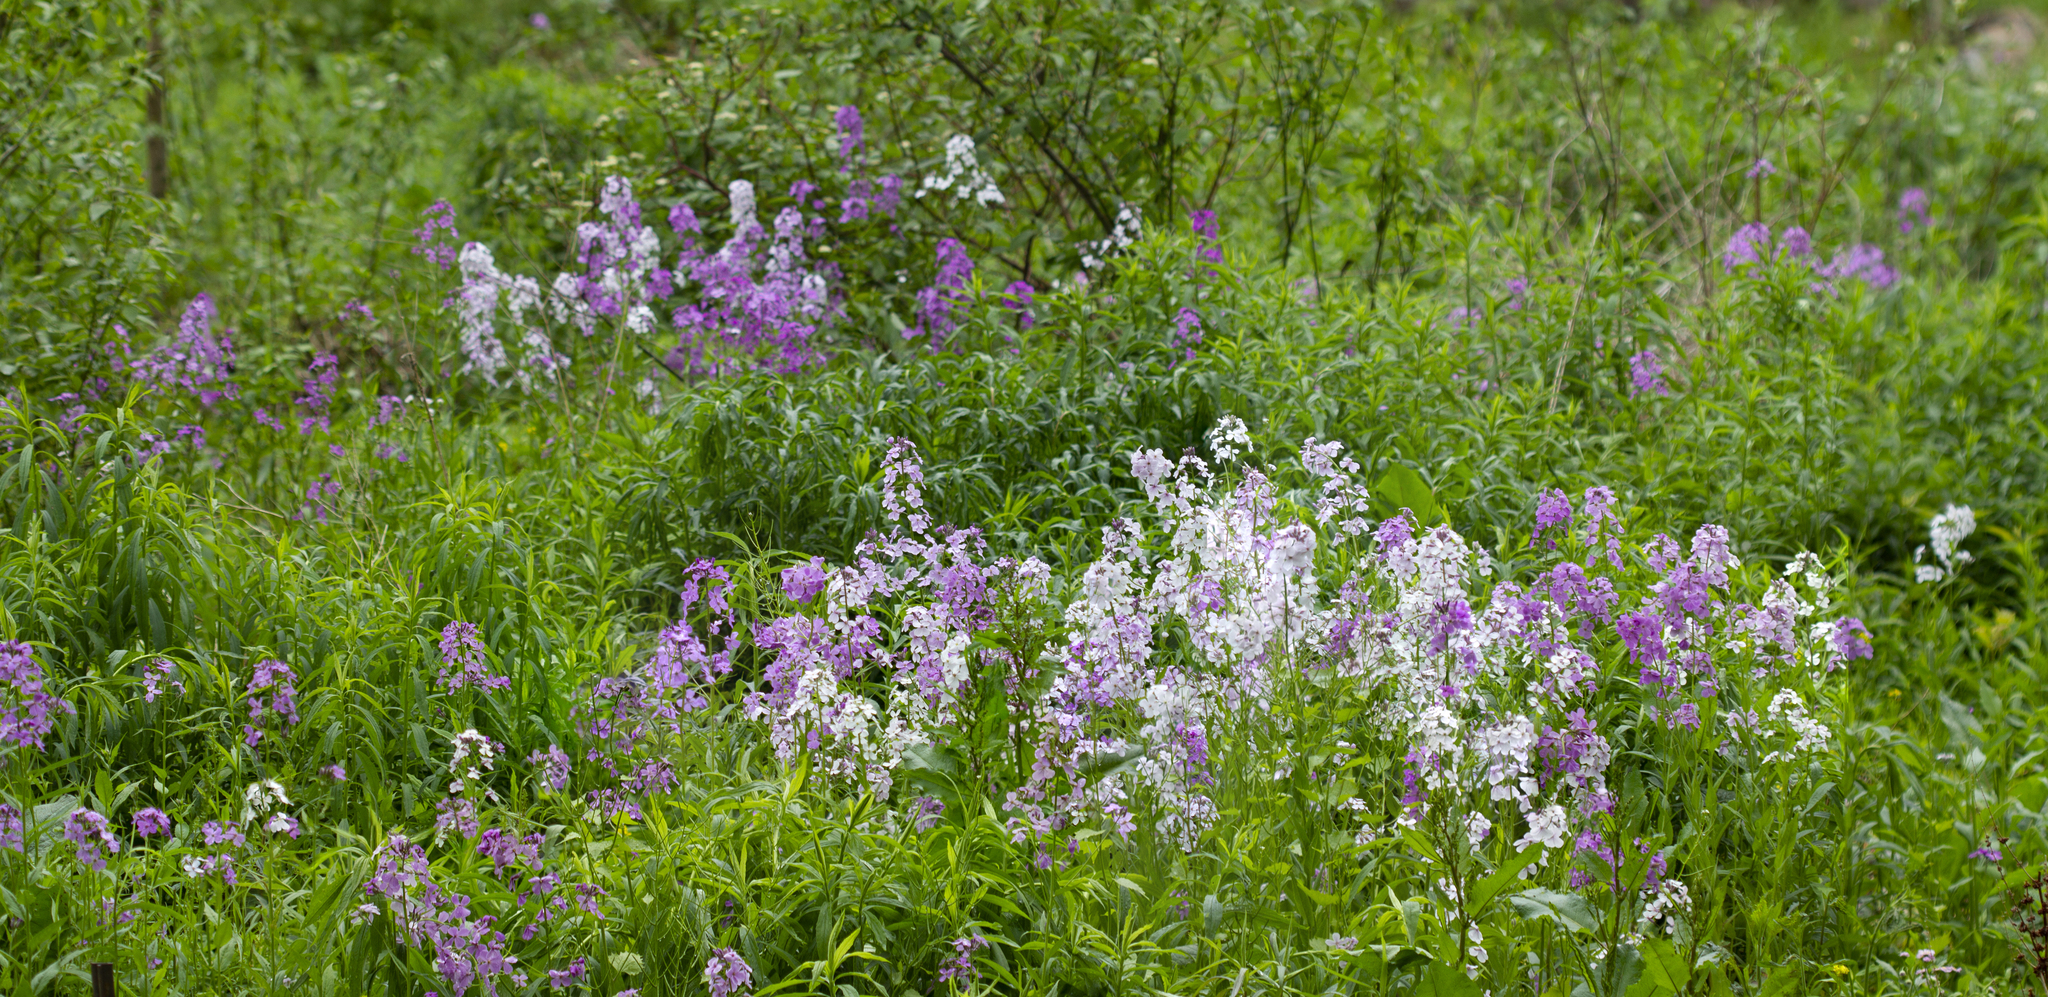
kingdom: Plantae
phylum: Tracheophyta
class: Magnoliopsida
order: Brassicales
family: Brassicaceae
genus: Hesperis
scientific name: Hesperis matronalis
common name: Dame's-violet
